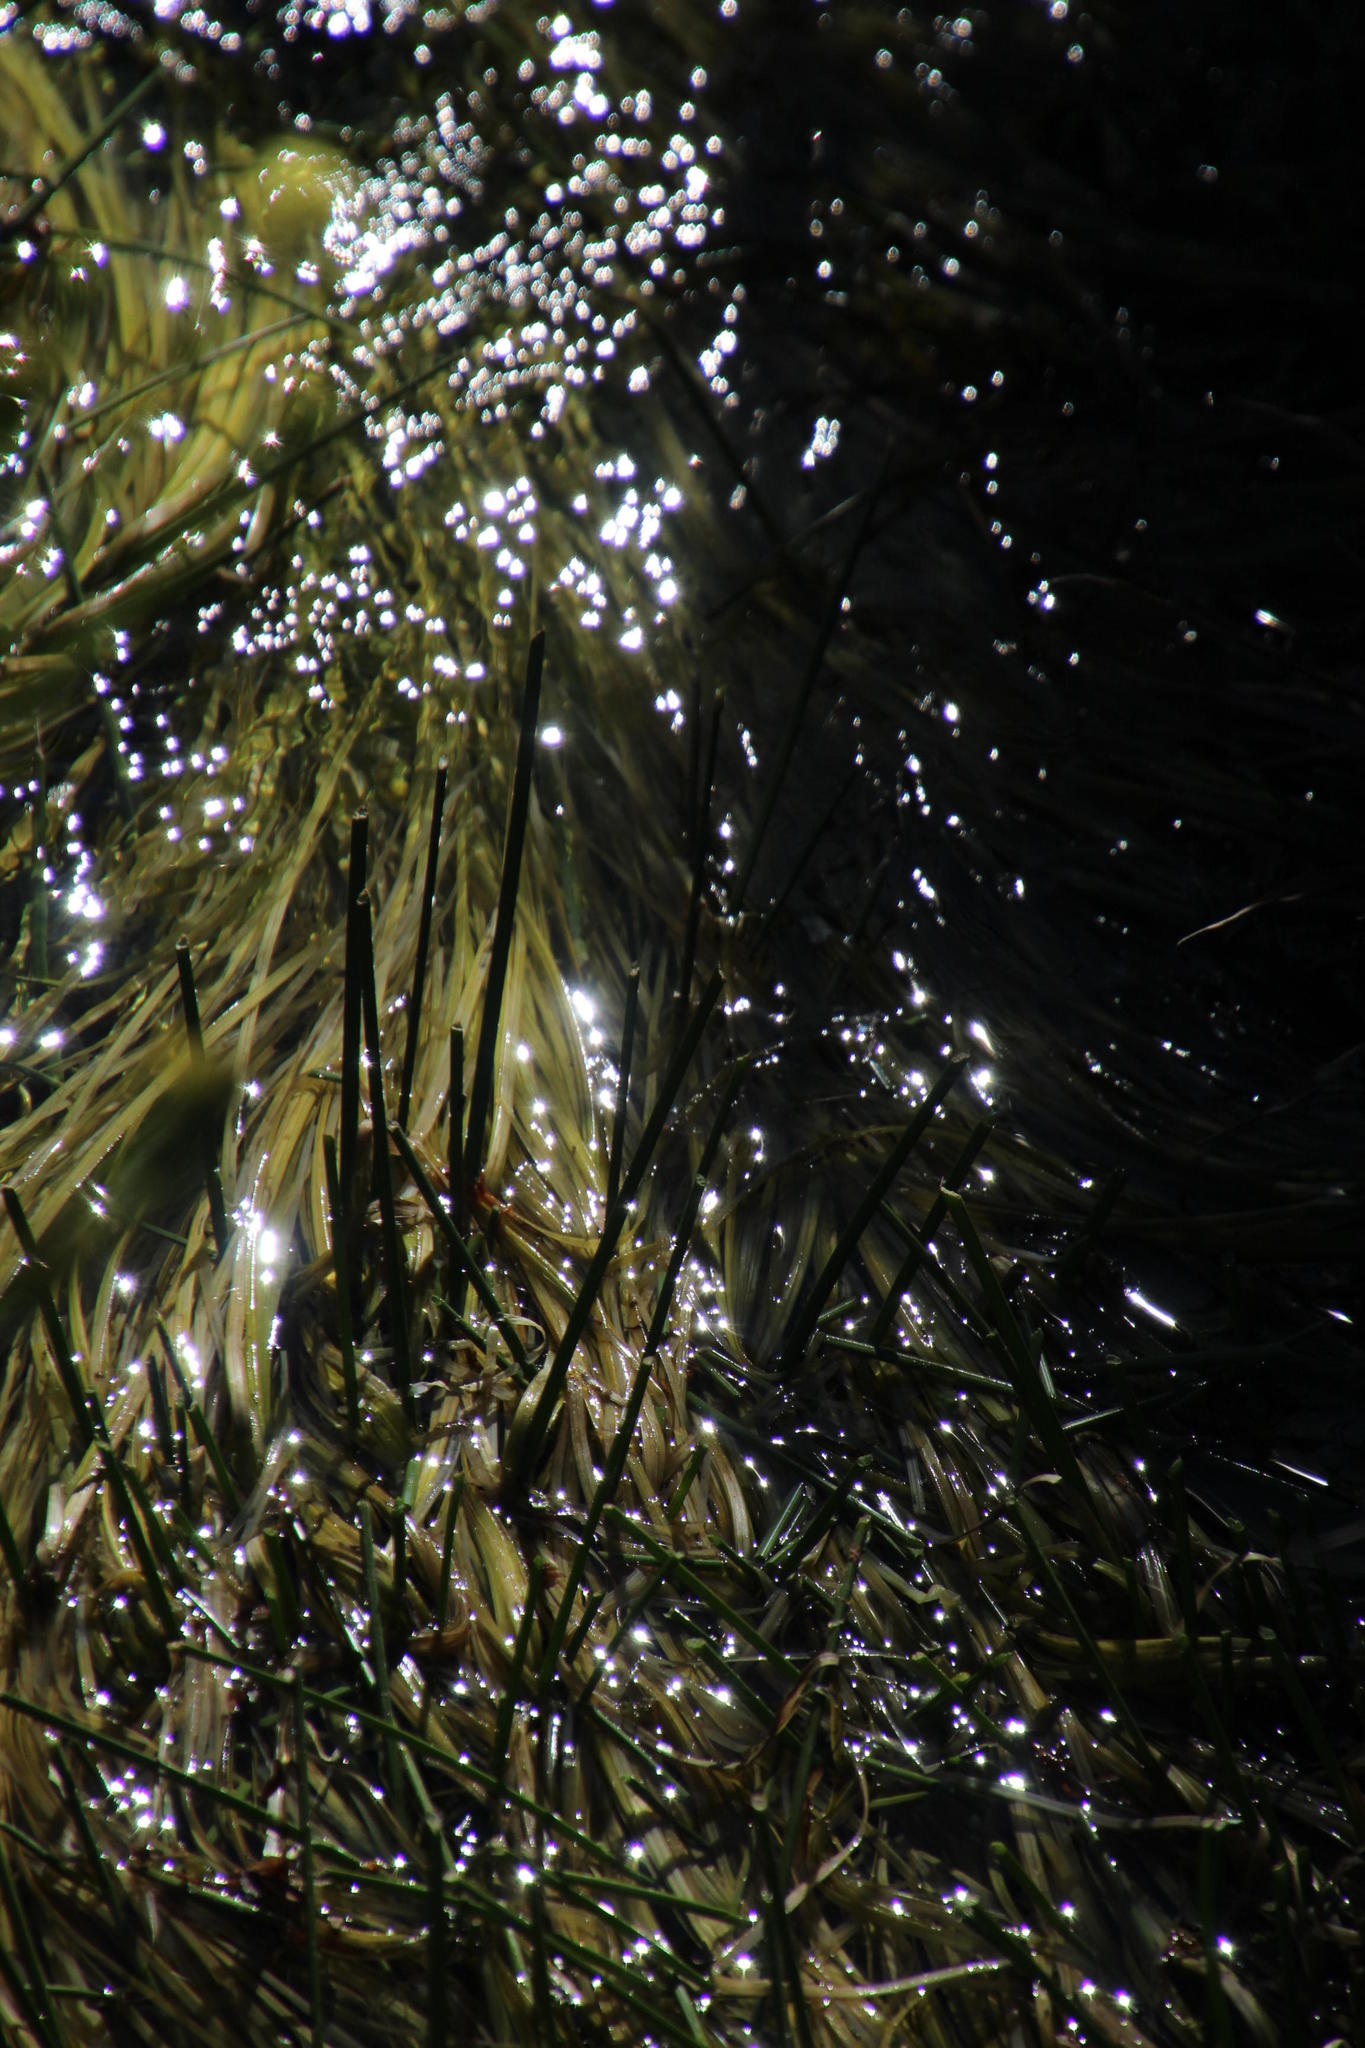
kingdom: Plantae
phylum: Tracheophyta
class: Liliopsida
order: Poales
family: Cyperaceae
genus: Isolepis
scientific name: Isolepis digitata
